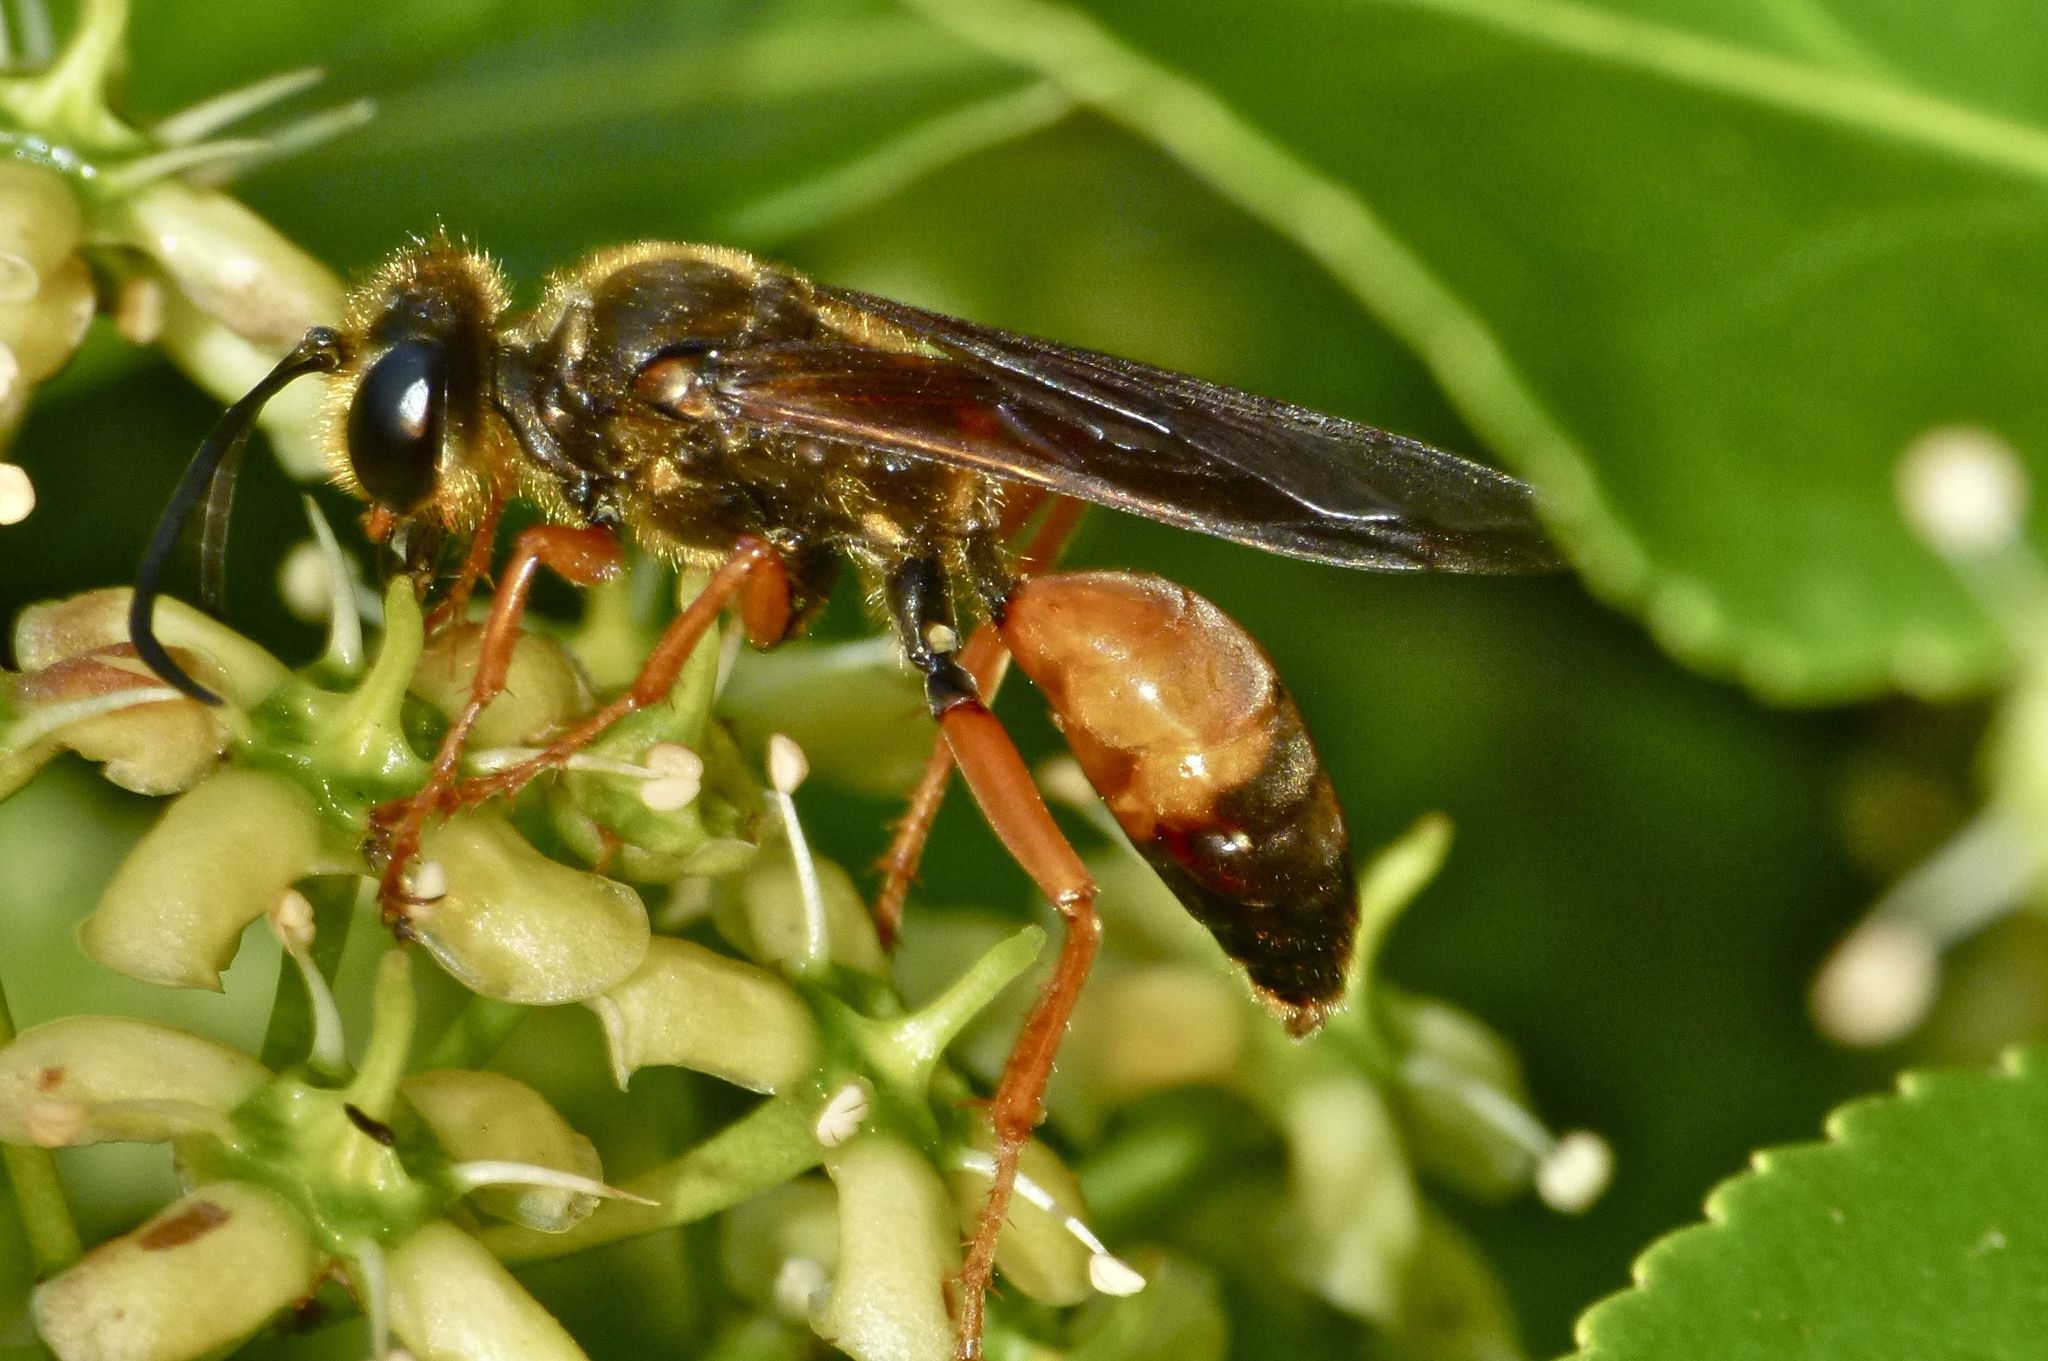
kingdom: Animalia
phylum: Arthropoda
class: Insecta
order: Hymenoptera
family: Sphecidae
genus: Sphex
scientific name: Sphex ichneumoneus
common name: Great golden digger wasp
